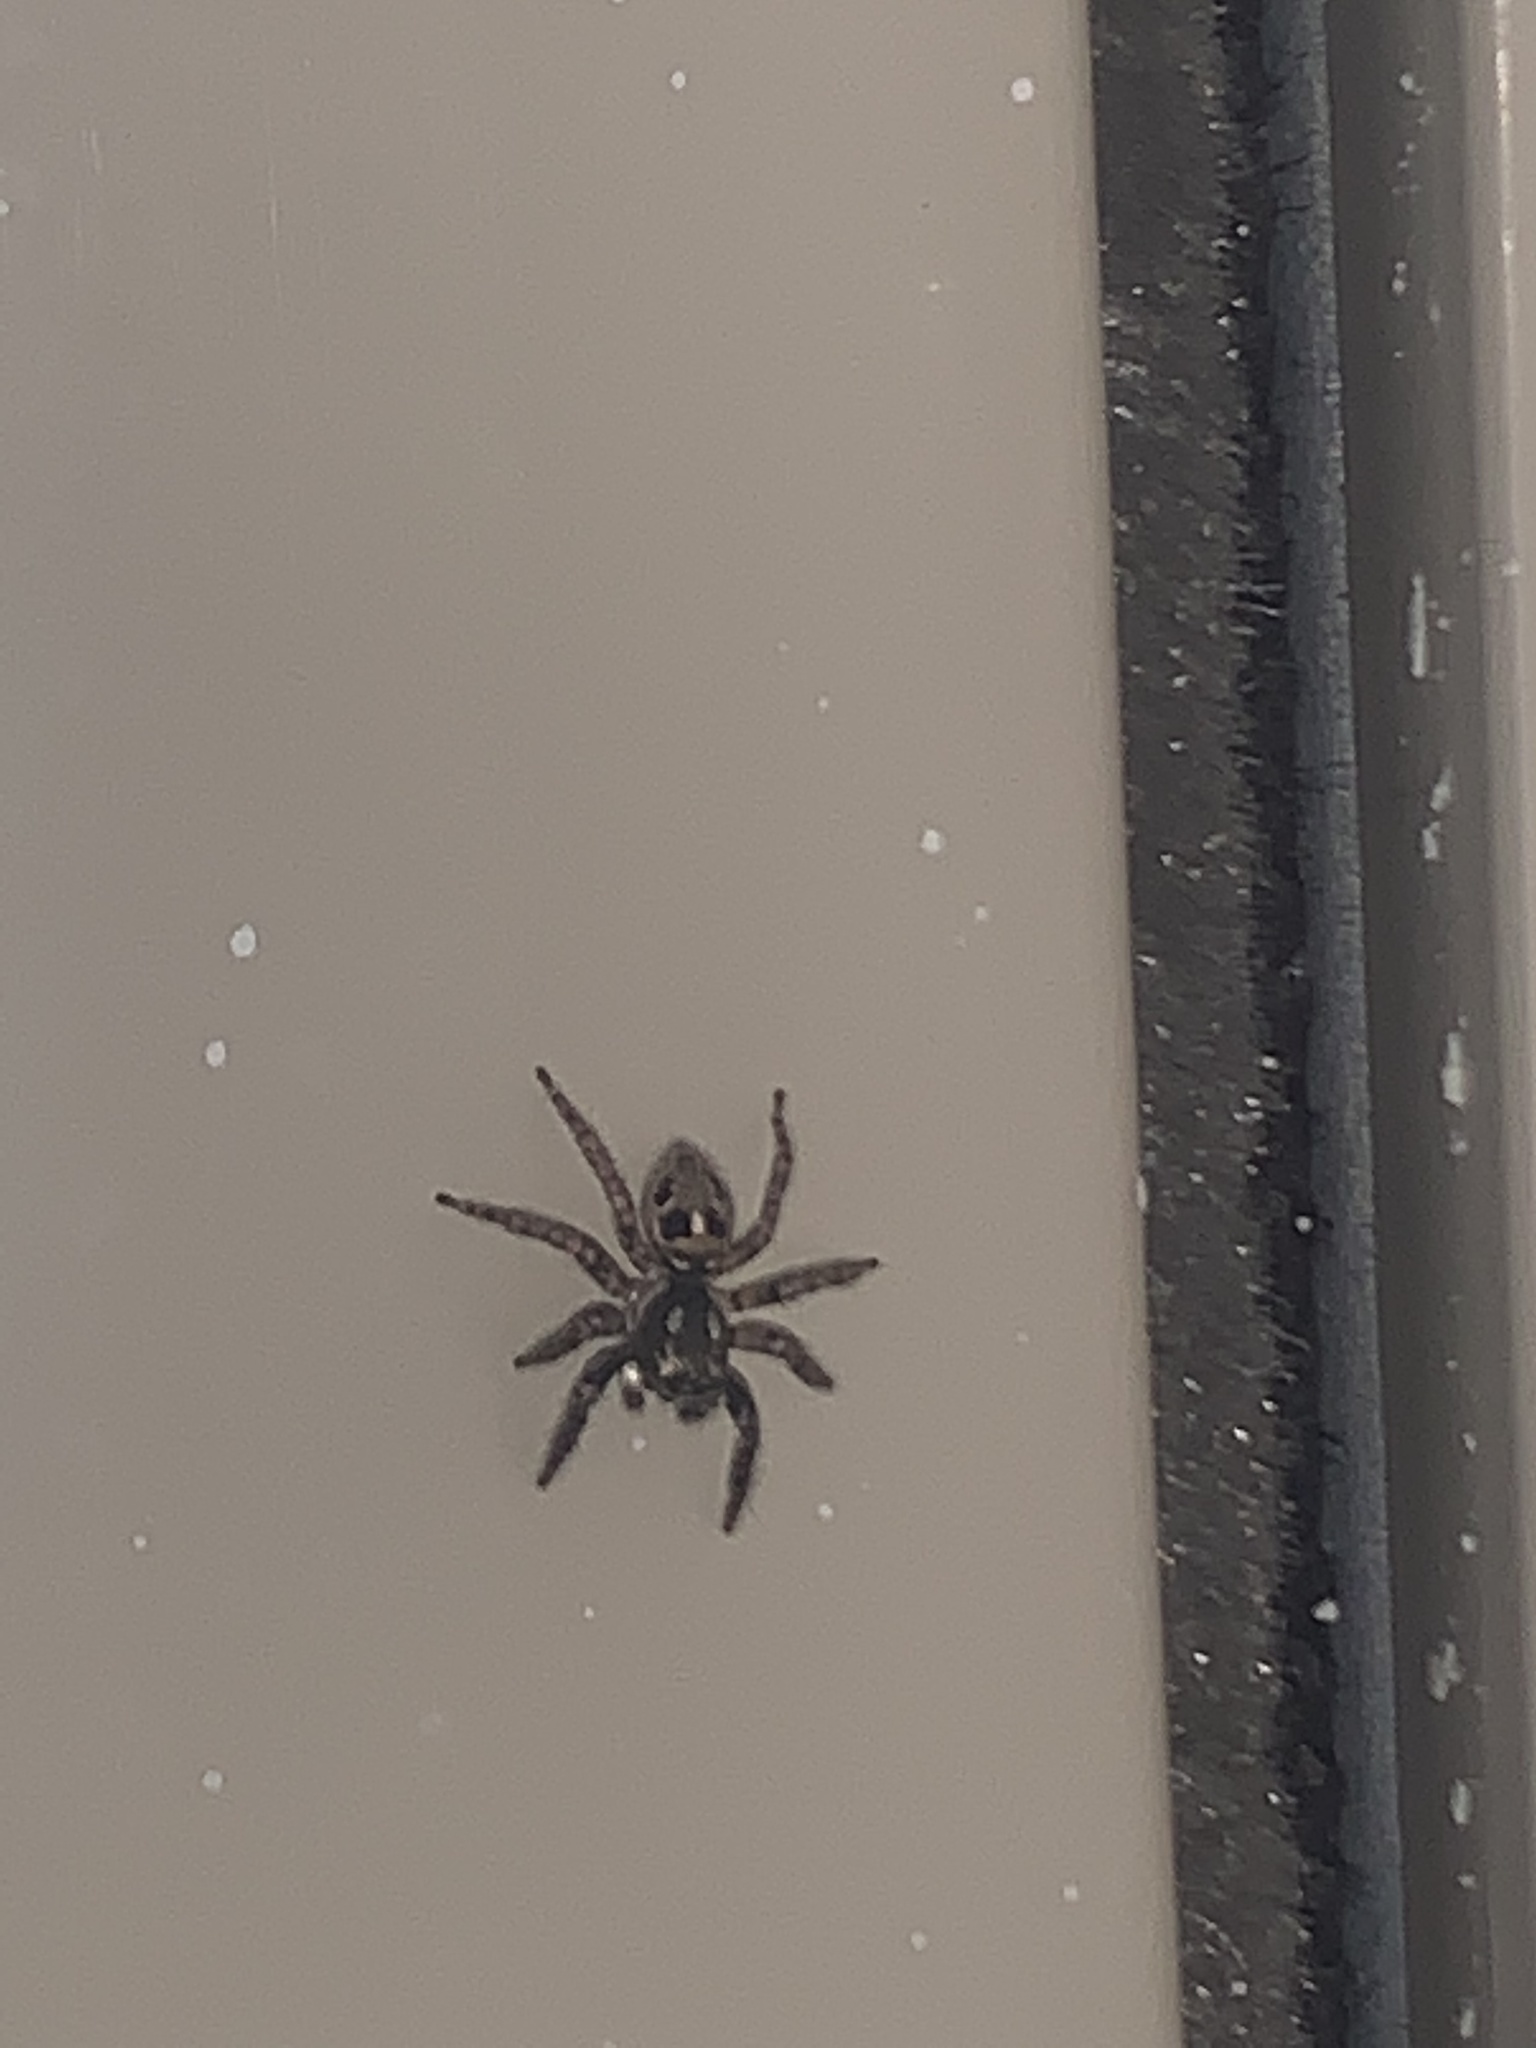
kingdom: Animalia
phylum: Arthropoda
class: Arachnida
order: Araneae
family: Salticidae
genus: Anasaitis
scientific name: Anasaitis canosa
